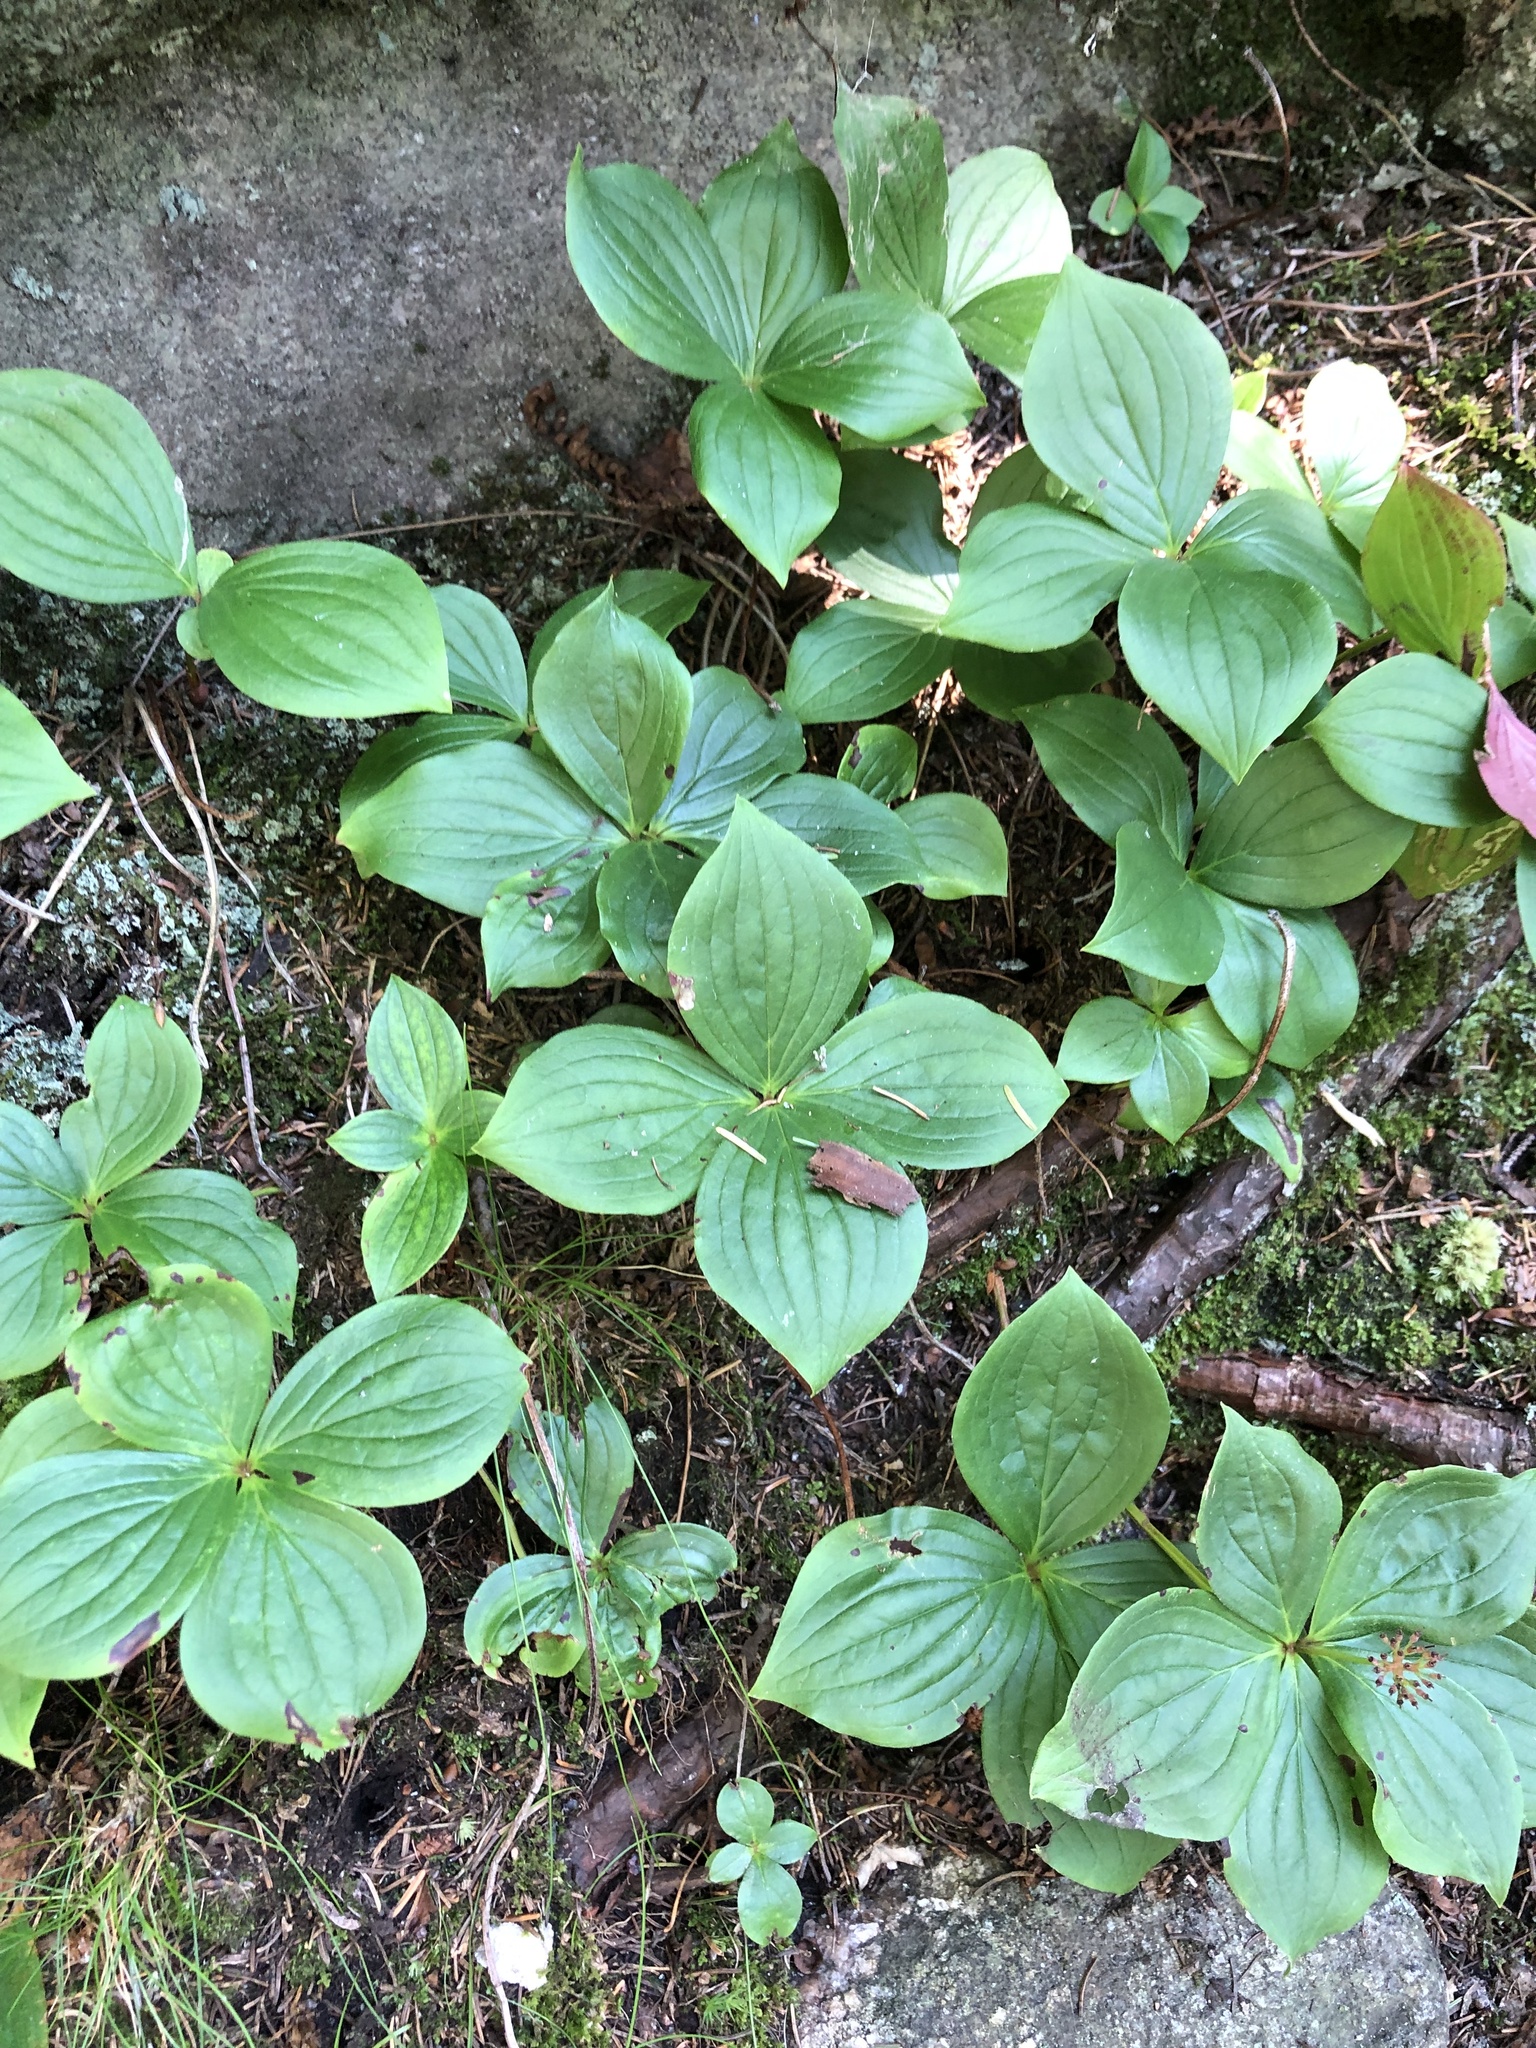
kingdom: Plantae
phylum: Tracheophyta
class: Magnoliopsida
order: Cornales
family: Cornaceae
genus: Cornus
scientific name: Cornus canadensis
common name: Creeping dogwood
